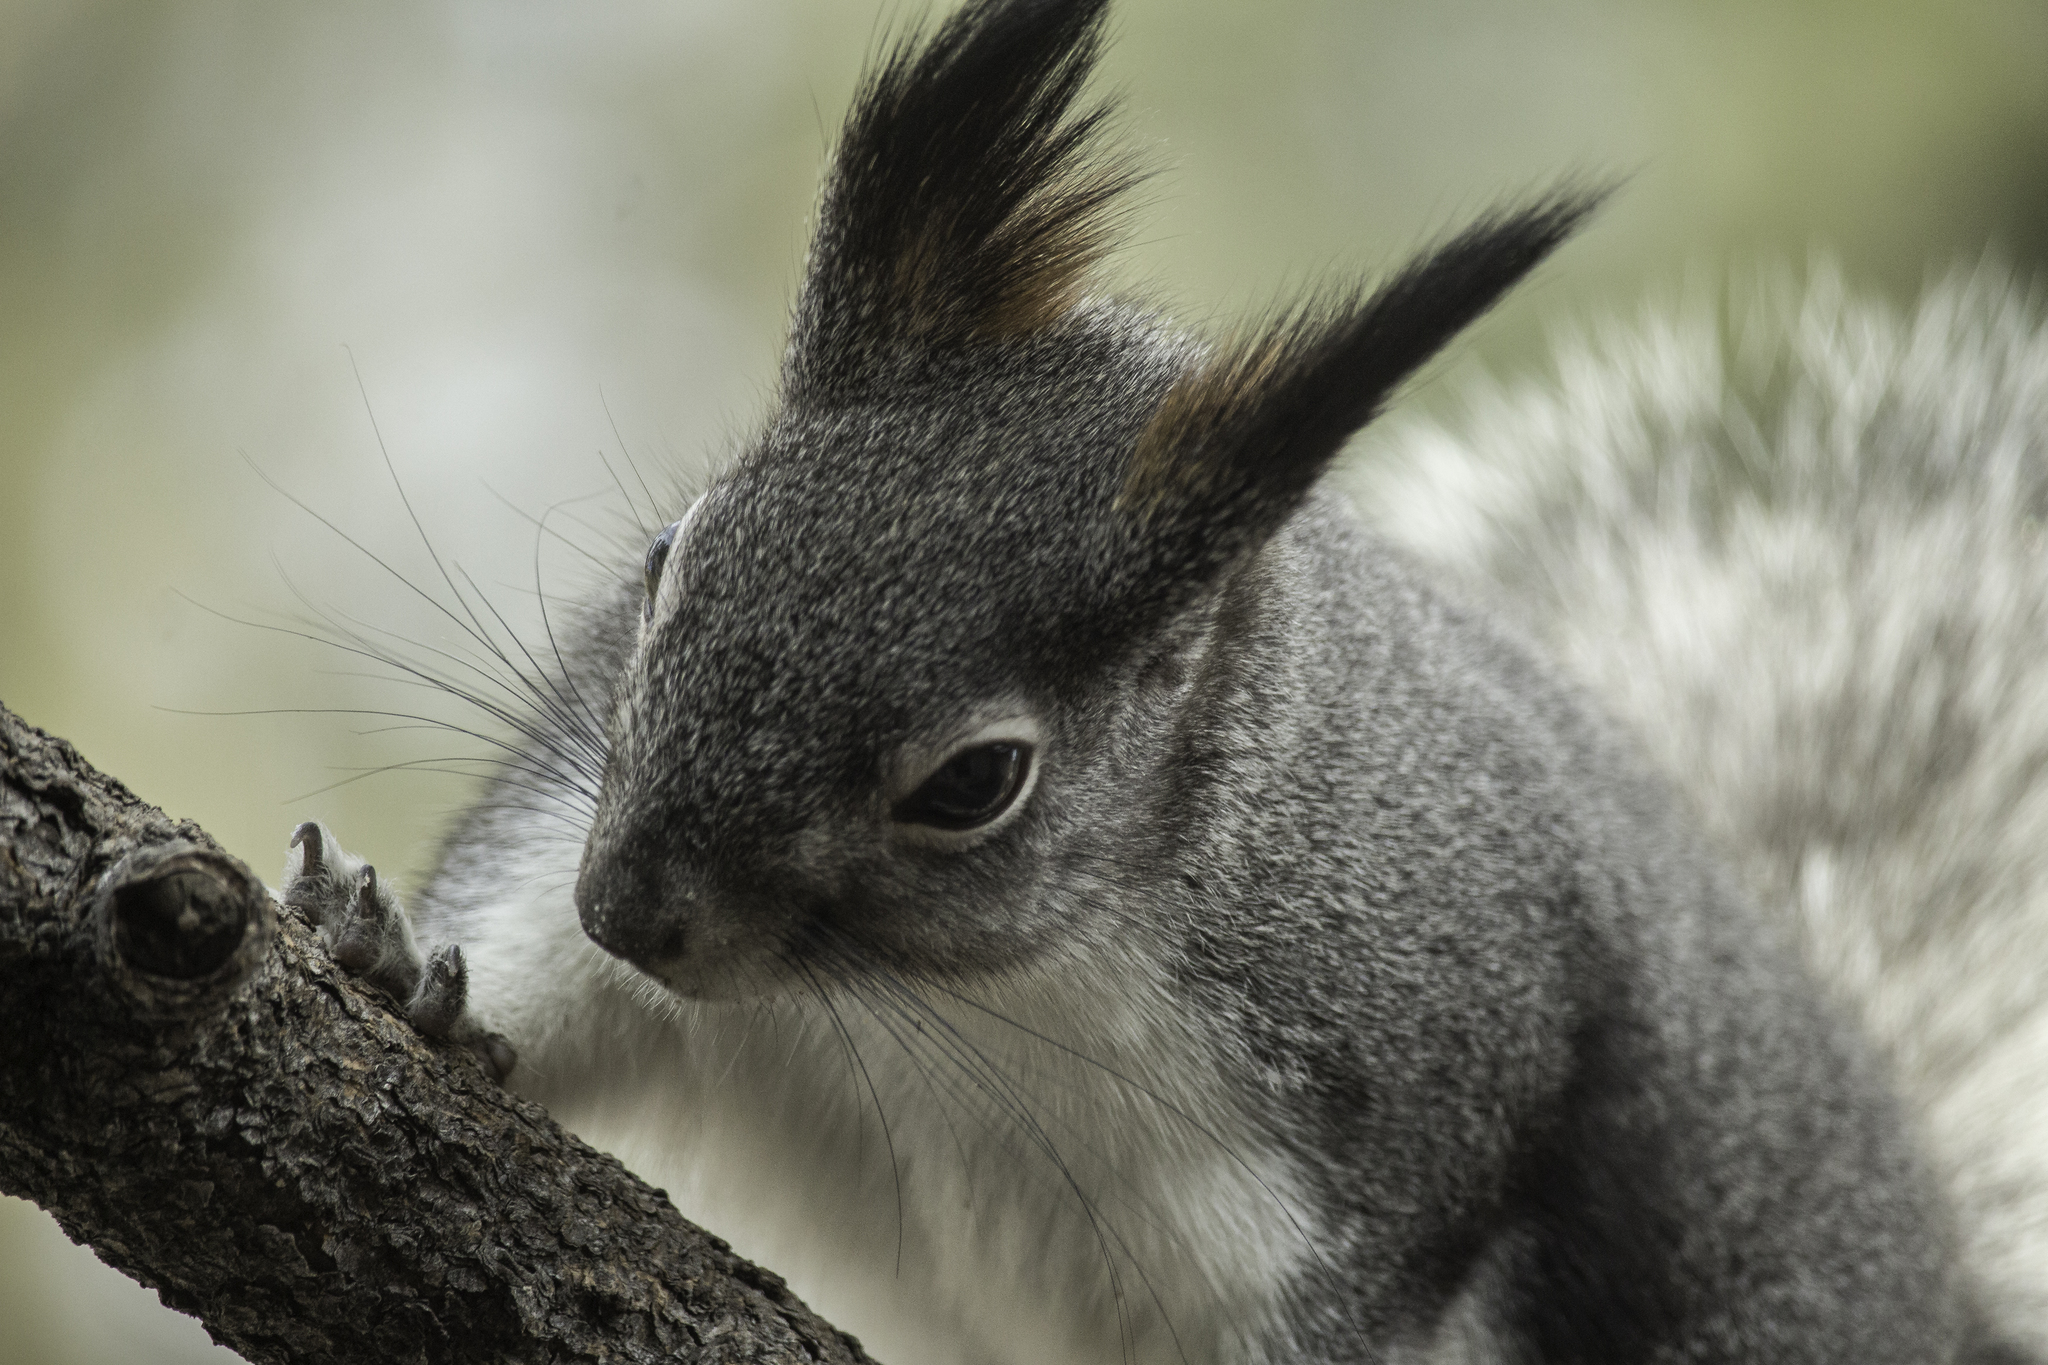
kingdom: Animalia
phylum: Chordata
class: Mammalia
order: Rodentia
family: Sciuridae
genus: Sciurus
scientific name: Sciurus aberti
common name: Abert's squirrel
